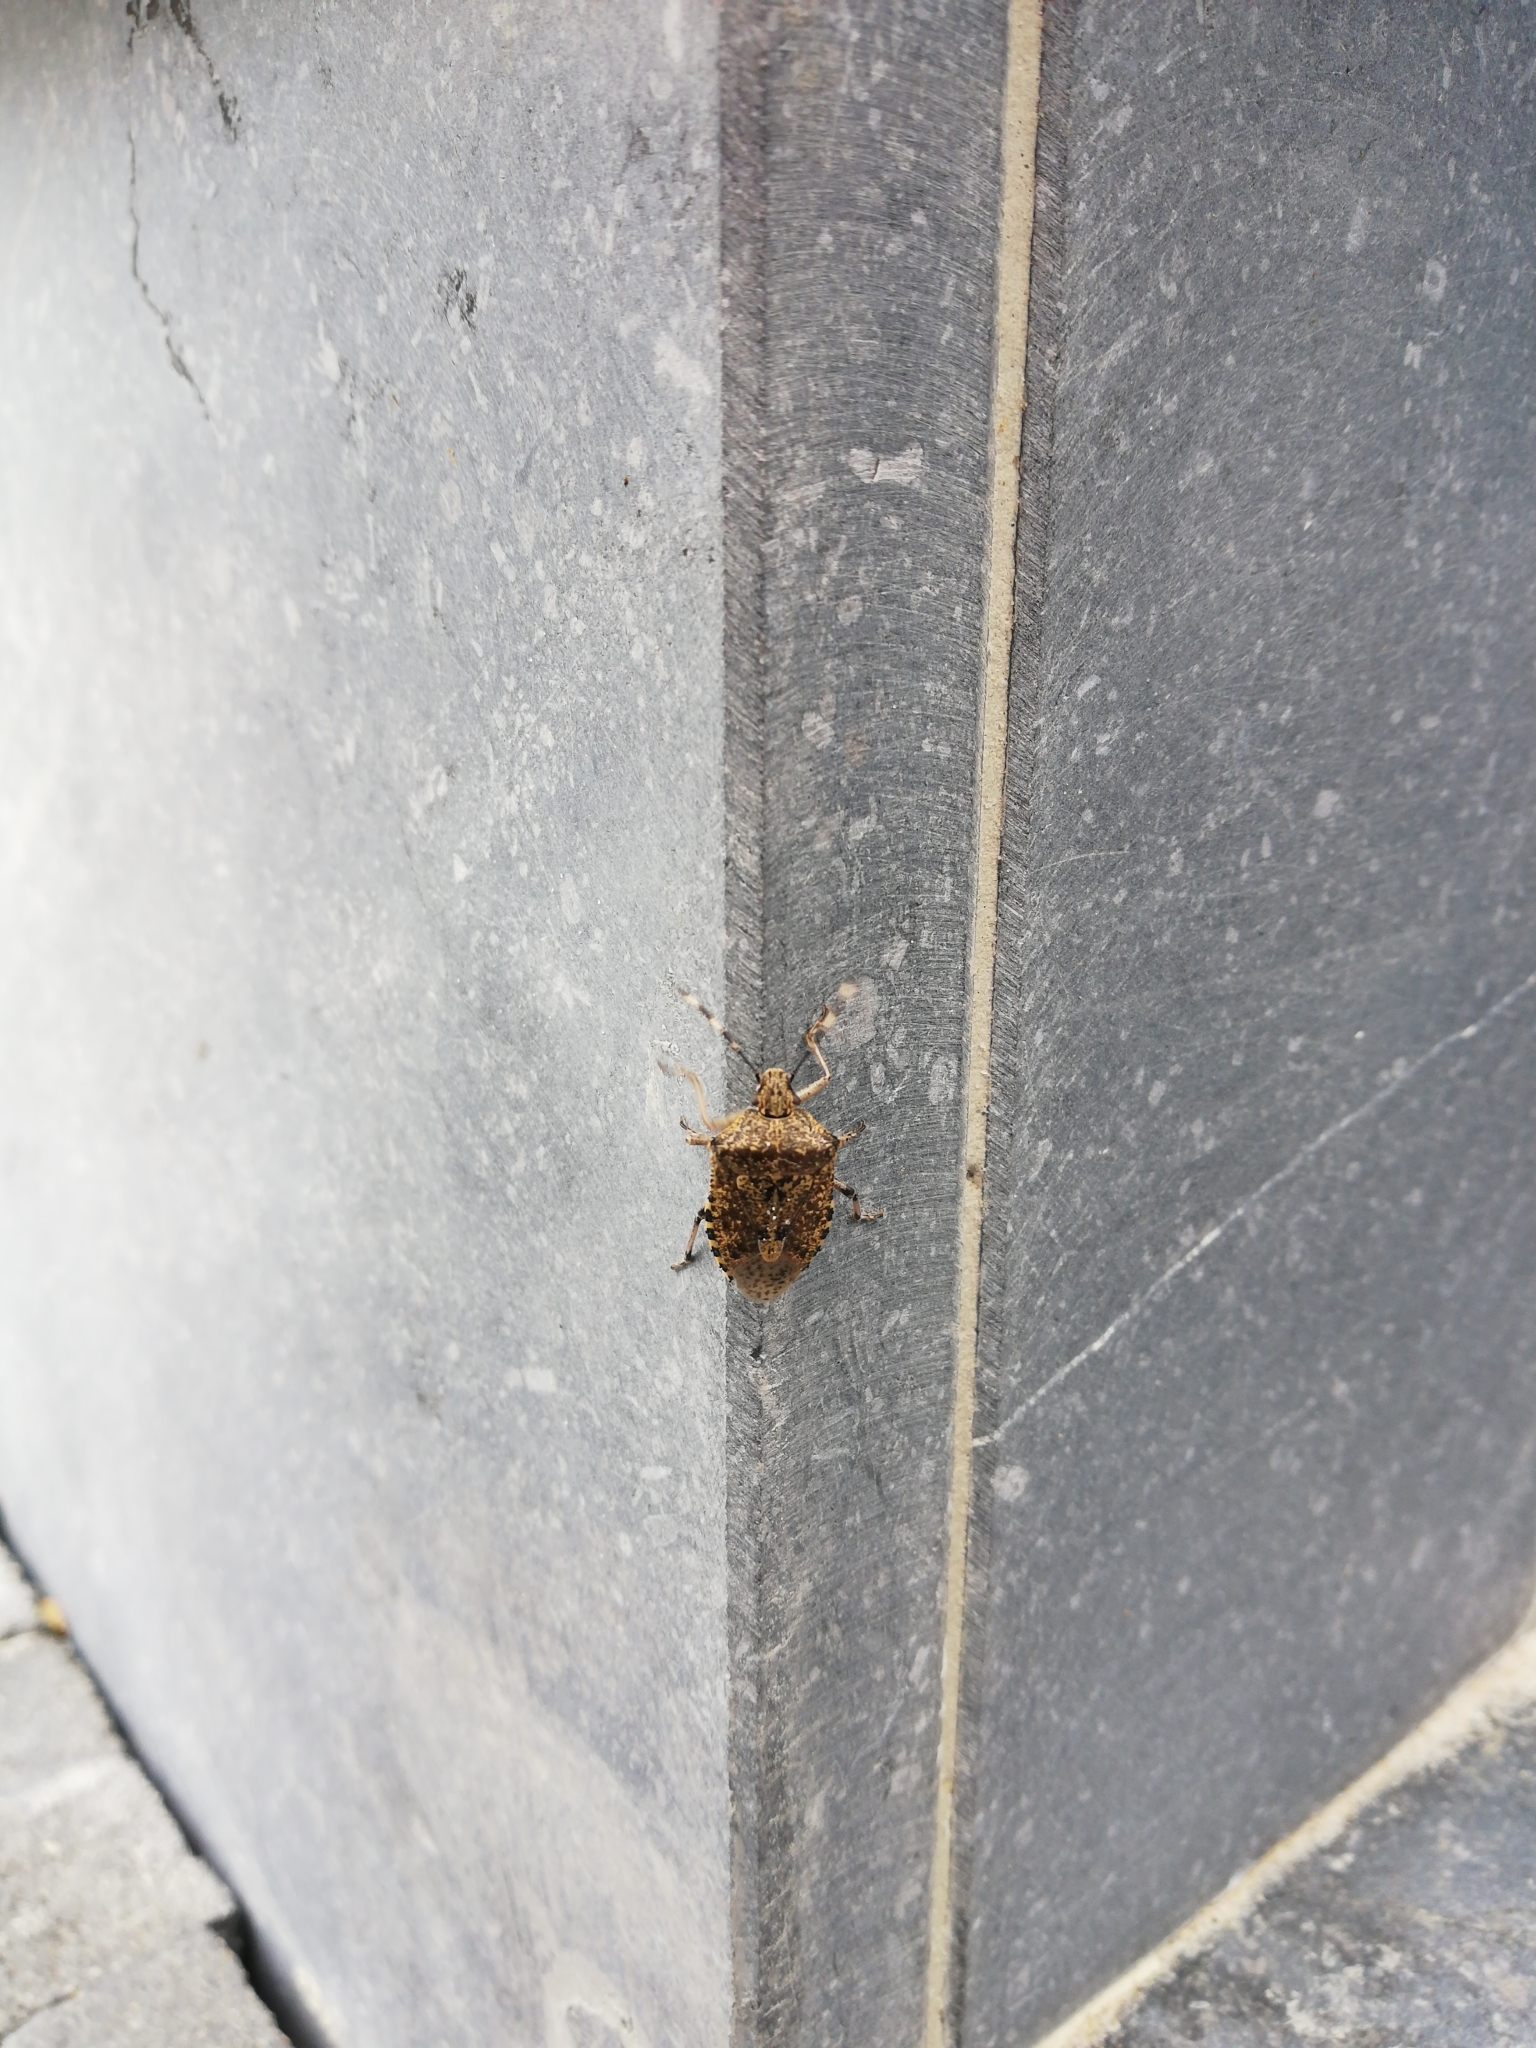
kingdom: Animalia
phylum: Arthropoda
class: Insecta
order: Hemiptera
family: Pentatomidae
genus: Rhaphigaster
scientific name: Rhaphigaster nebulosa
